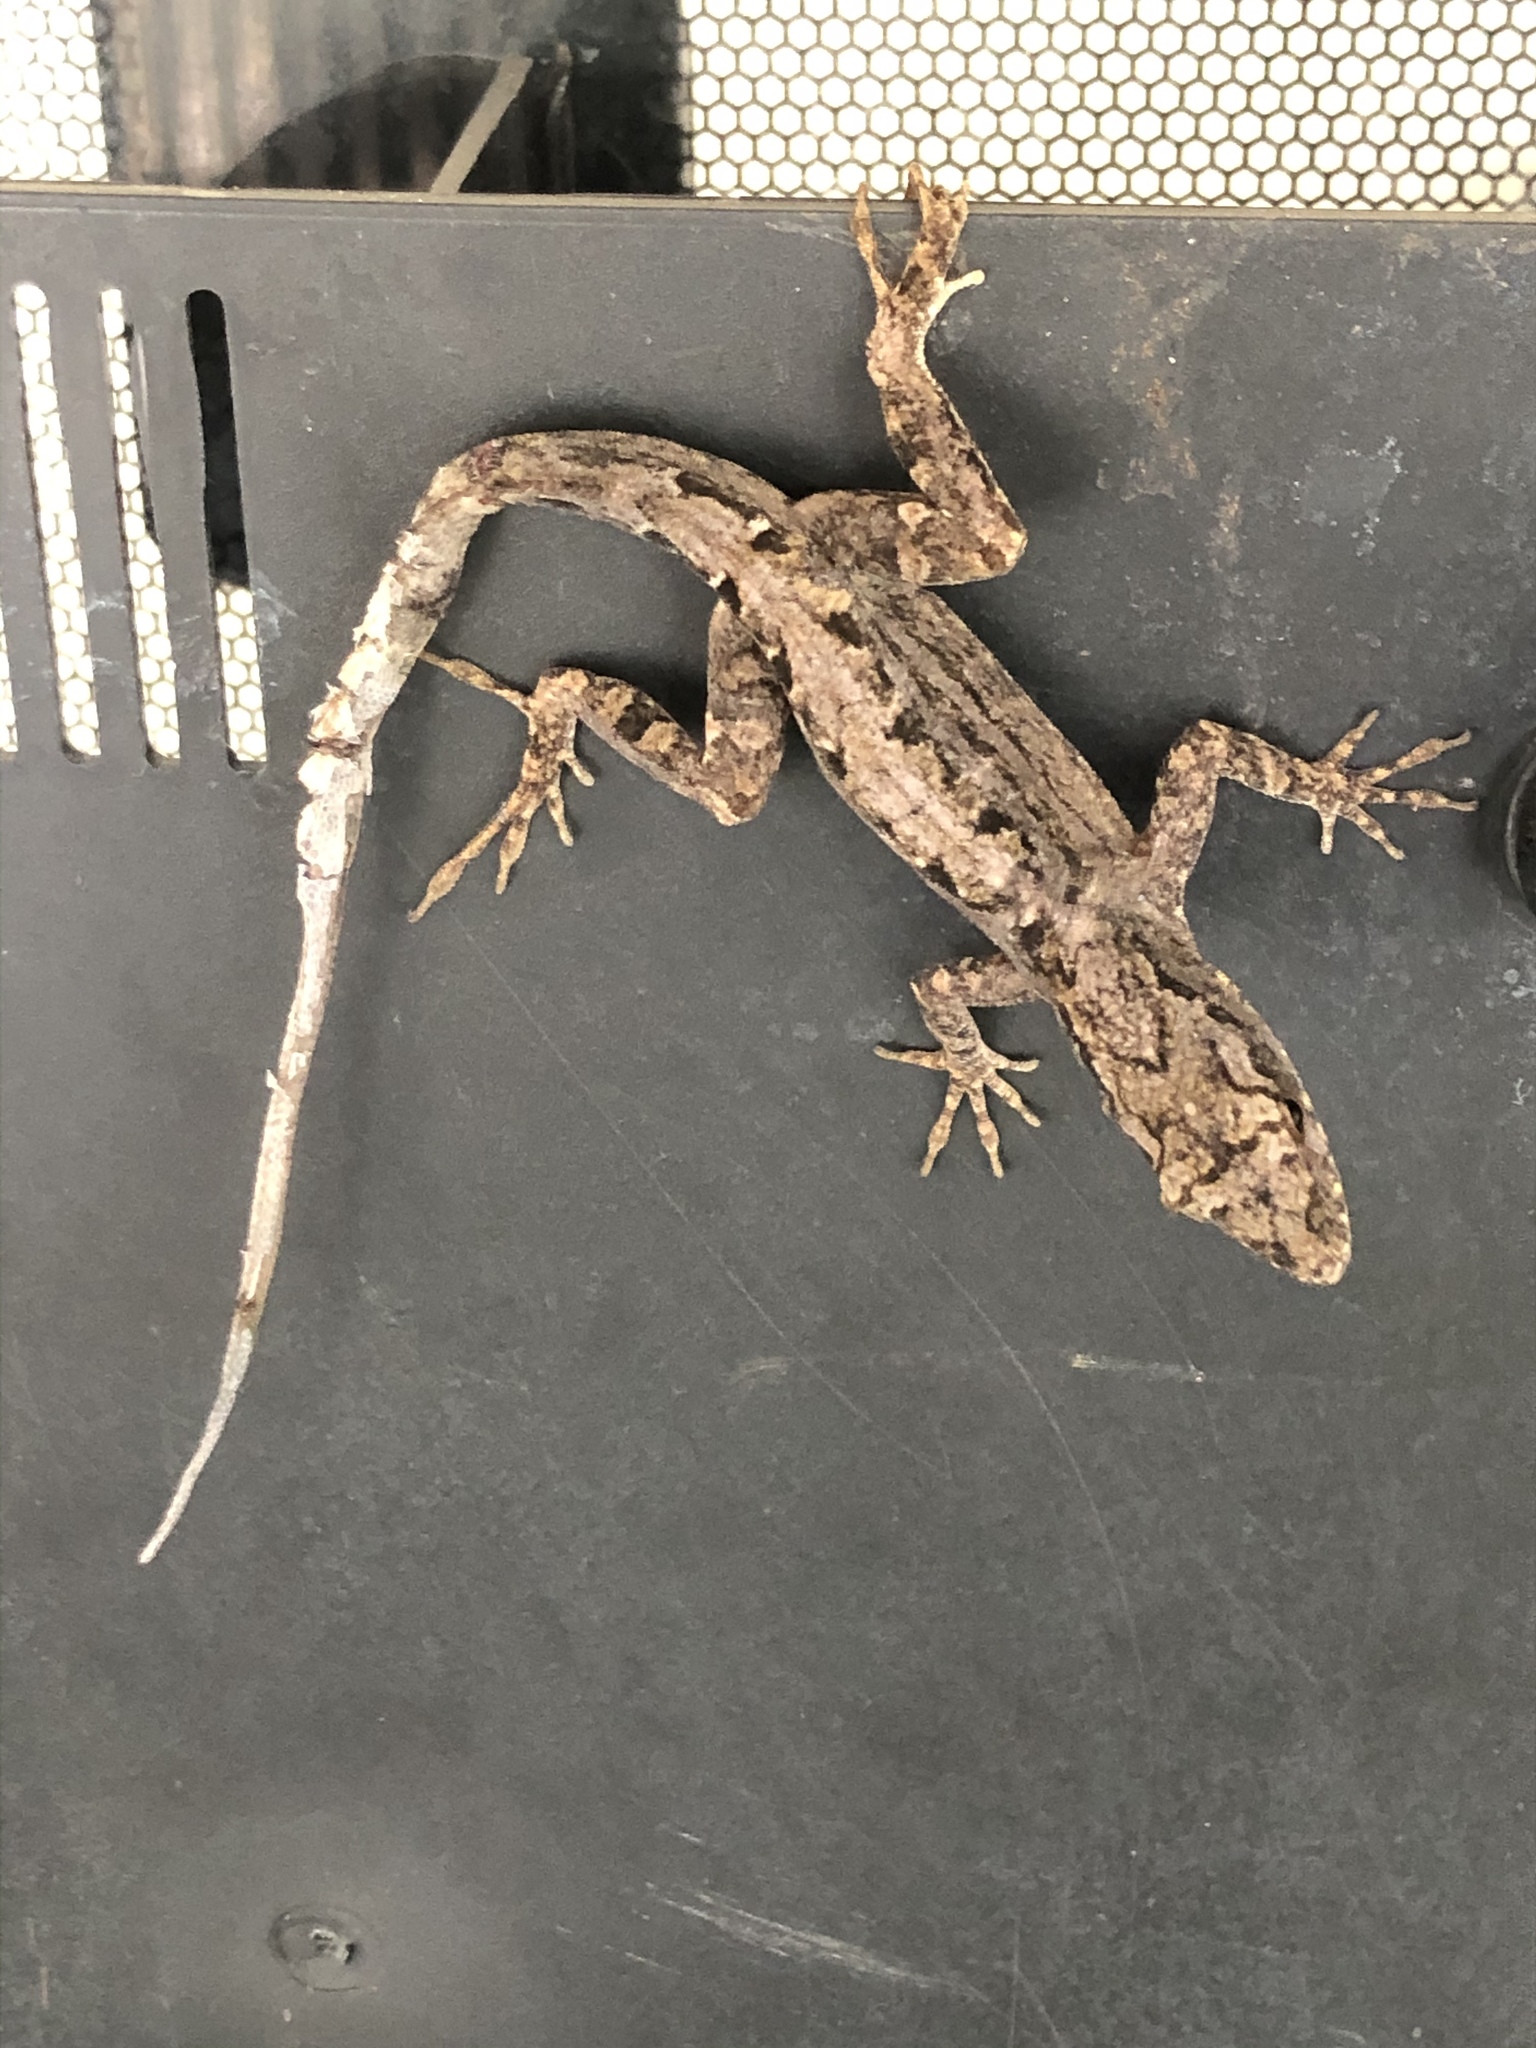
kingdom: Animalia
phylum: Chordata
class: Squamata
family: Dactyloidae
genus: Anolis
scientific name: Anolis sagrei
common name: Brown anole
